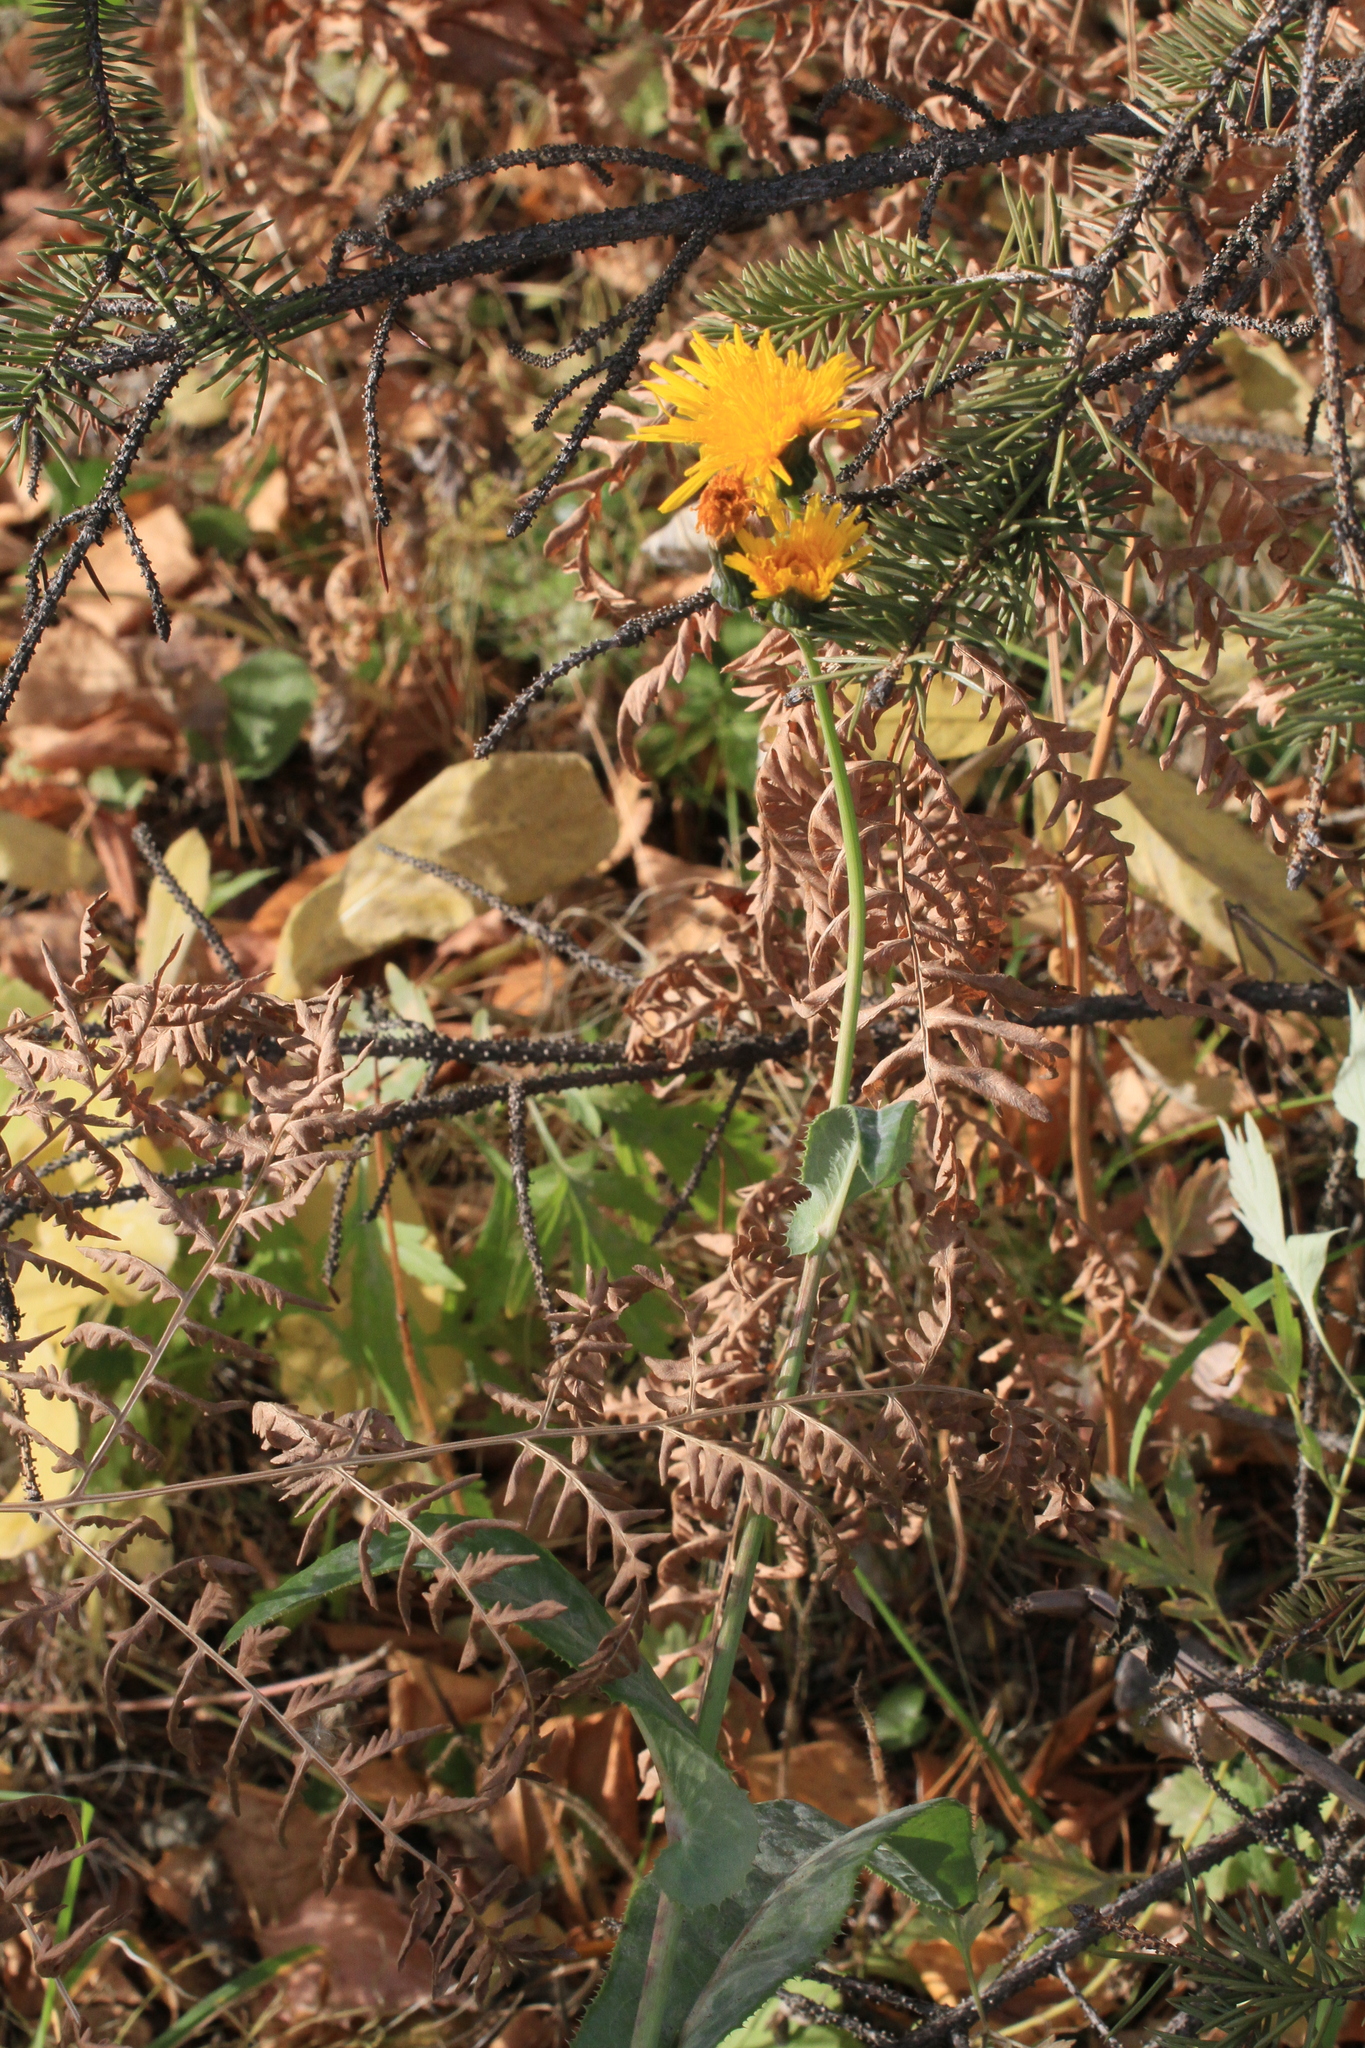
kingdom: Plantae
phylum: Tracheophyta
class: Magnoliopsida
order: Asterales
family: Asteraceae
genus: Sonchus
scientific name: Sonchus arvensis
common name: Perennial sow-thistle
